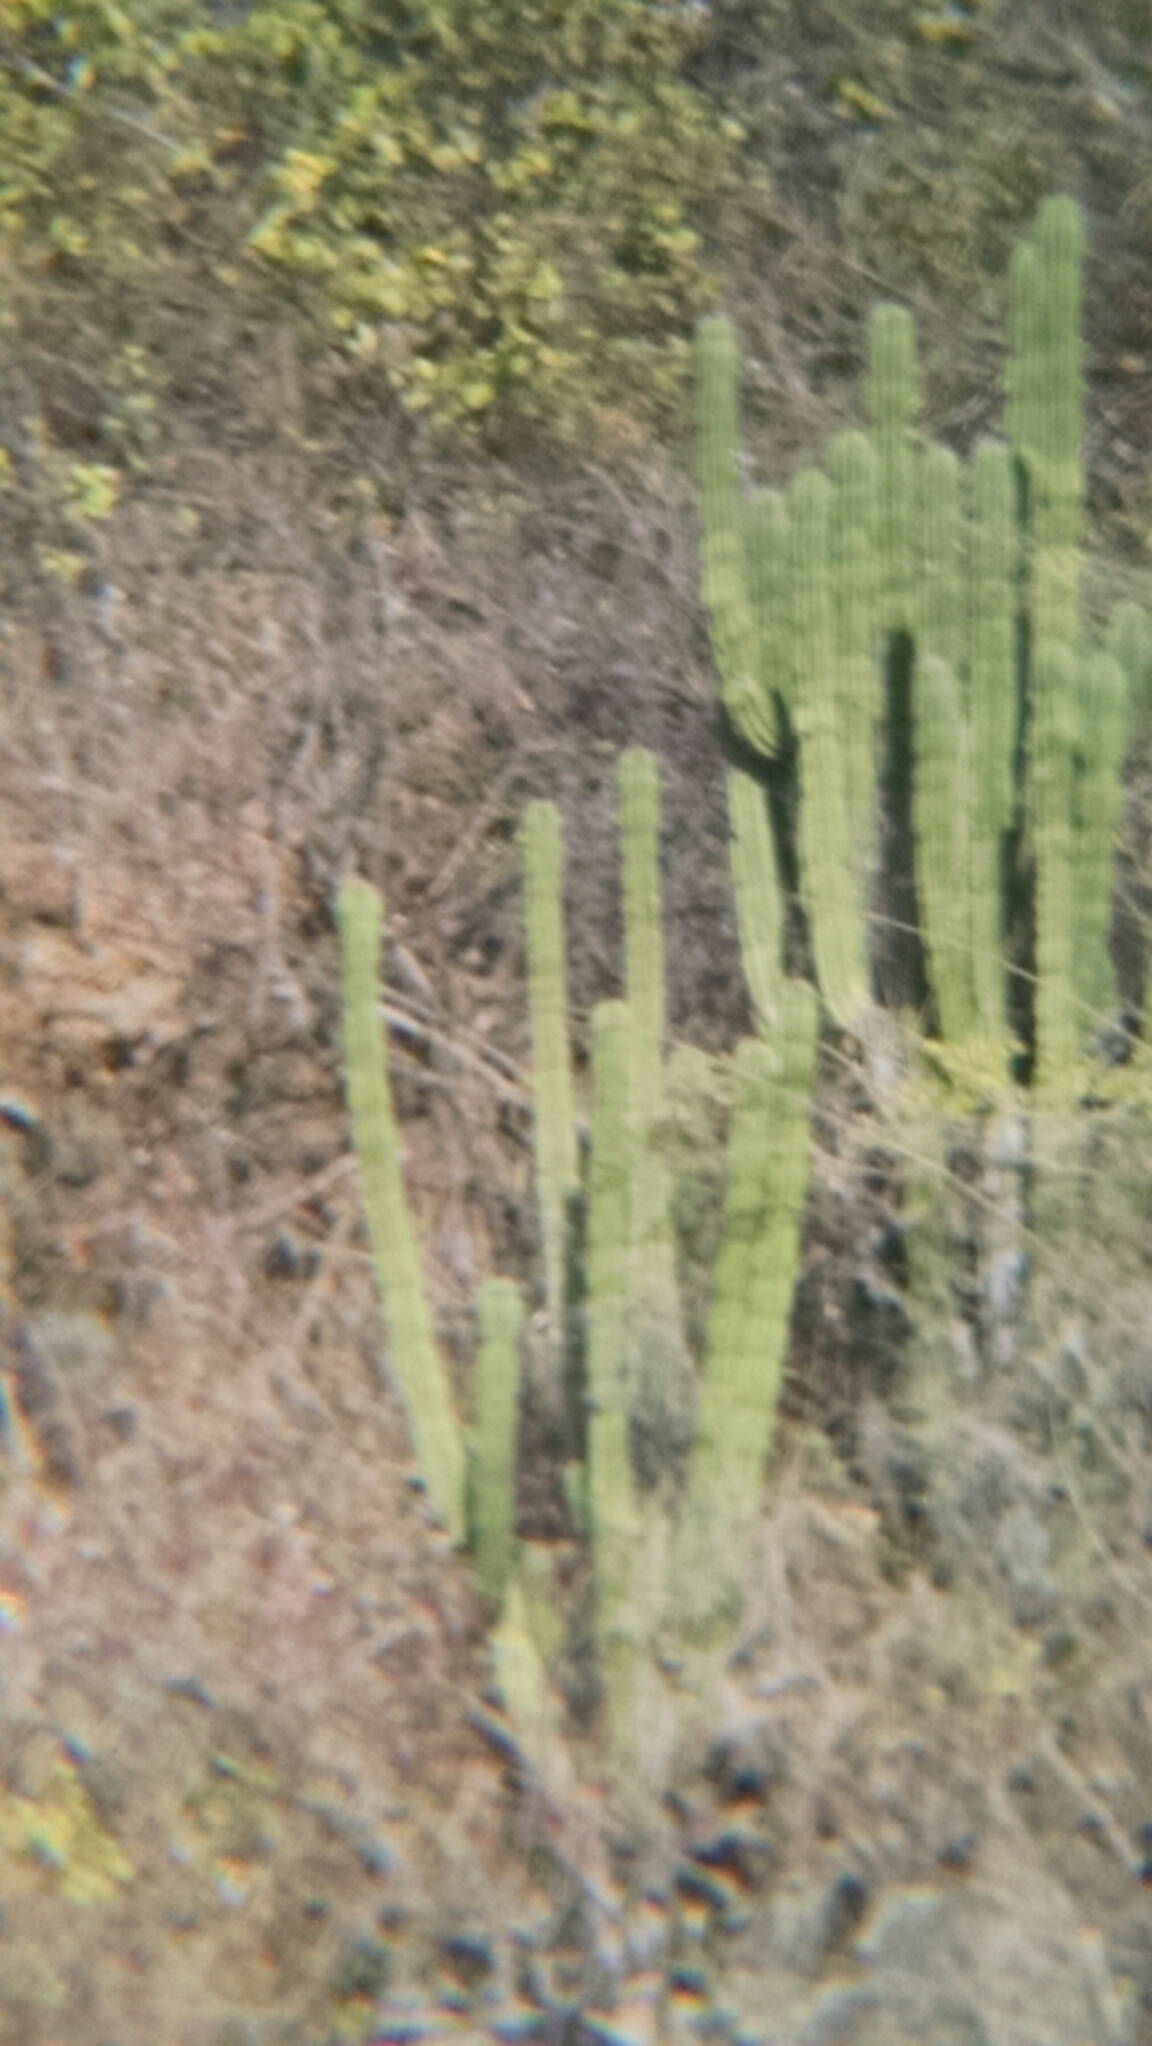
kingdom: Plantae
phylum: Tracheophyta
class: Magnoliopsida
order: Caryophyllales
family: Cactaceae
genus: Pachycereus
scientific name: Pachycereus pecten-aboriginum
